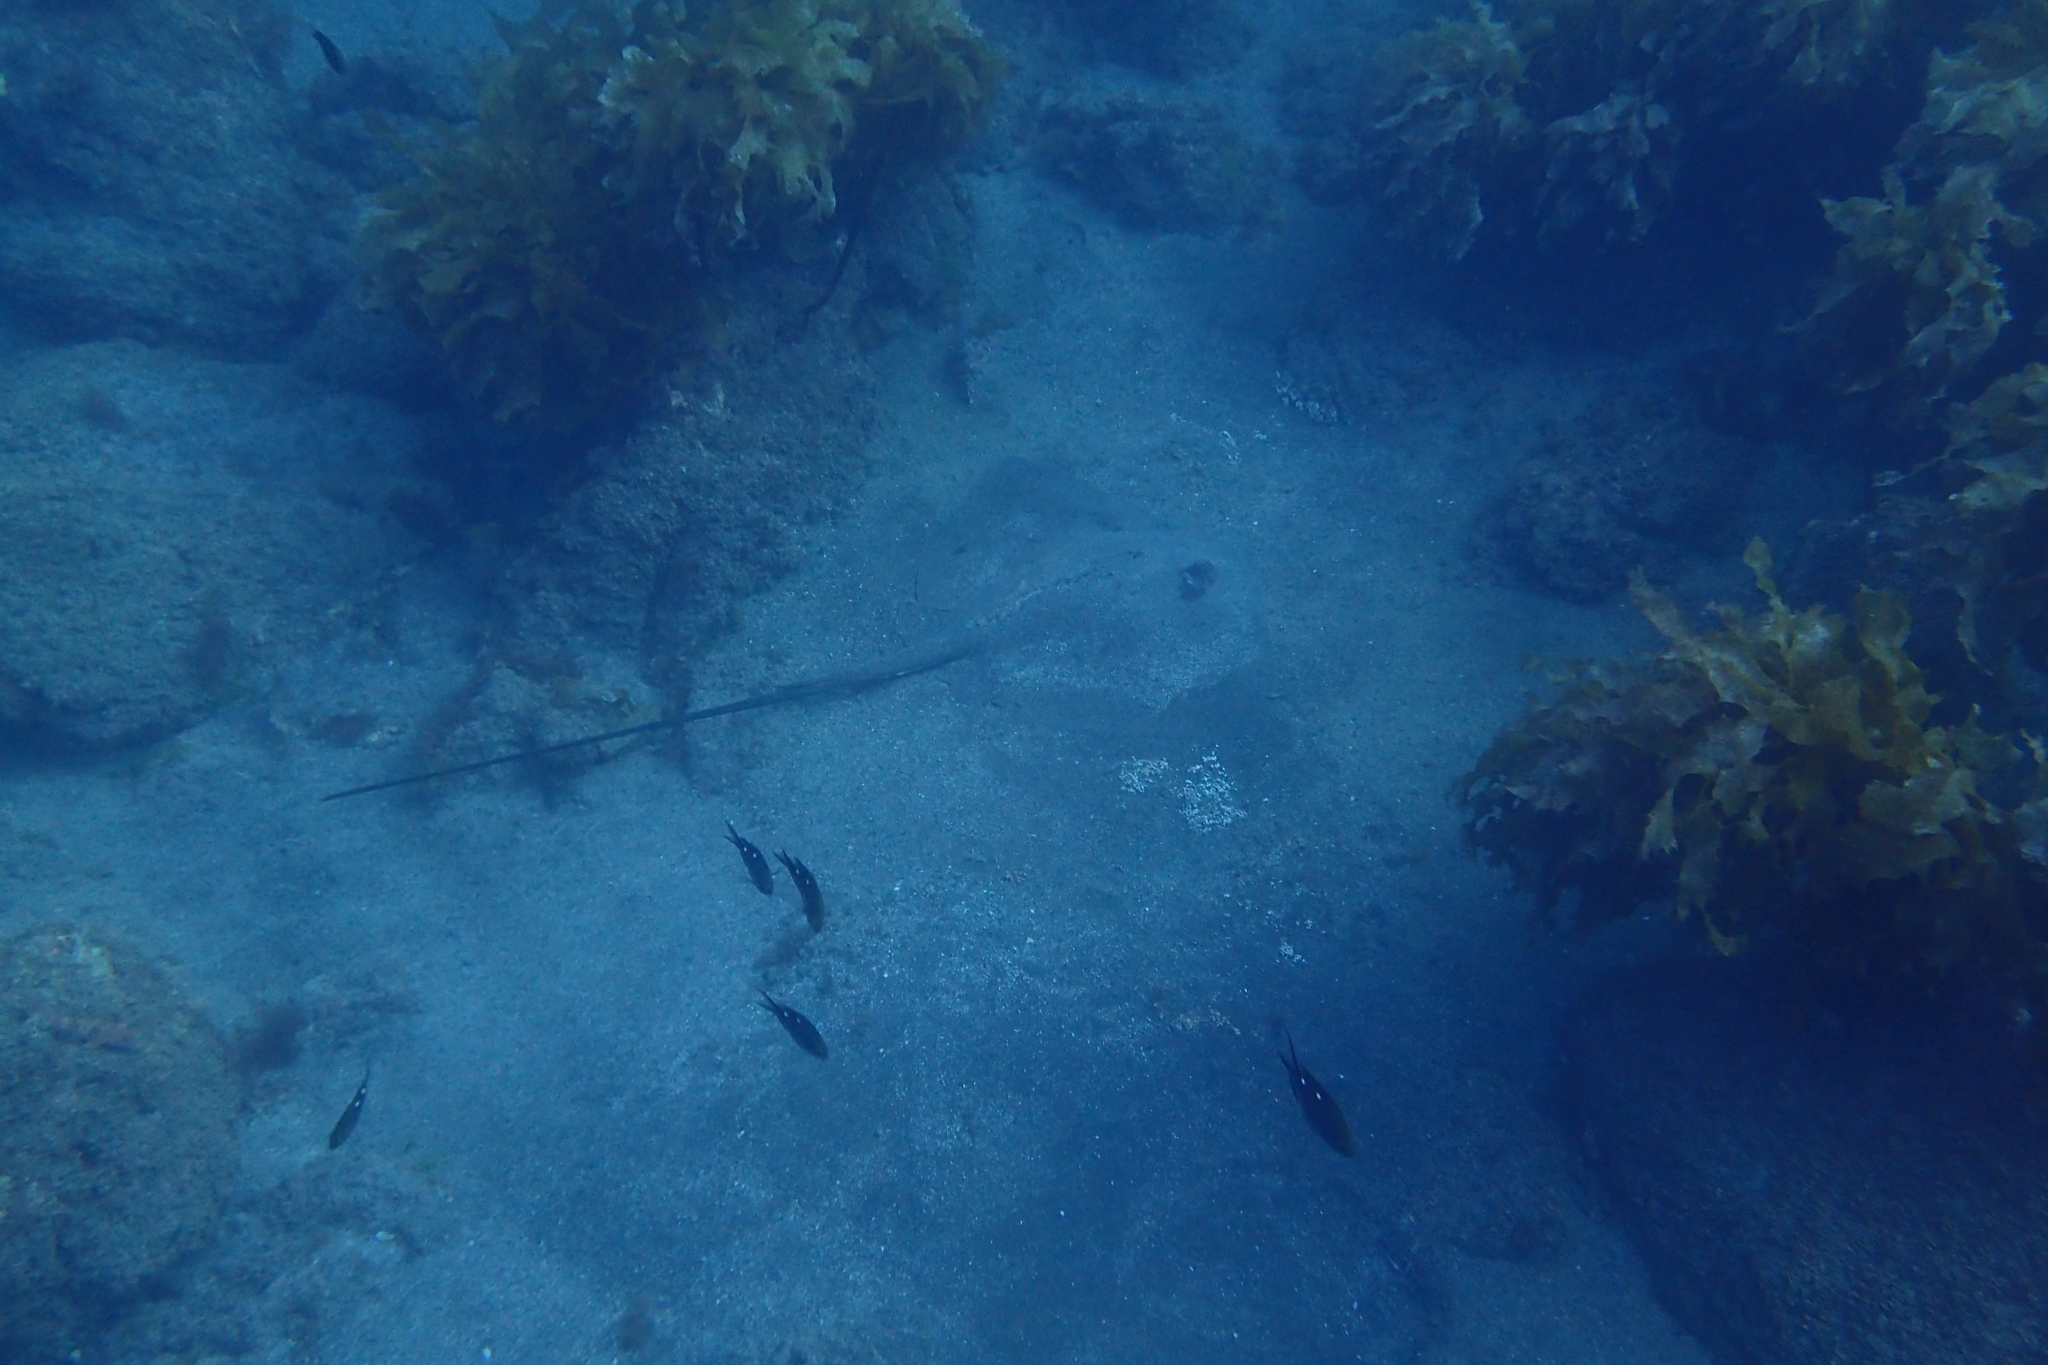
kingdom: Animalia
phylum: Chordata
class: Elasmobranchii
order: Myliobatiformes
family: Dasyatidae
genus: Bathytoshia
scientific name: Bathytoshia lata
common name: Brown stingray
